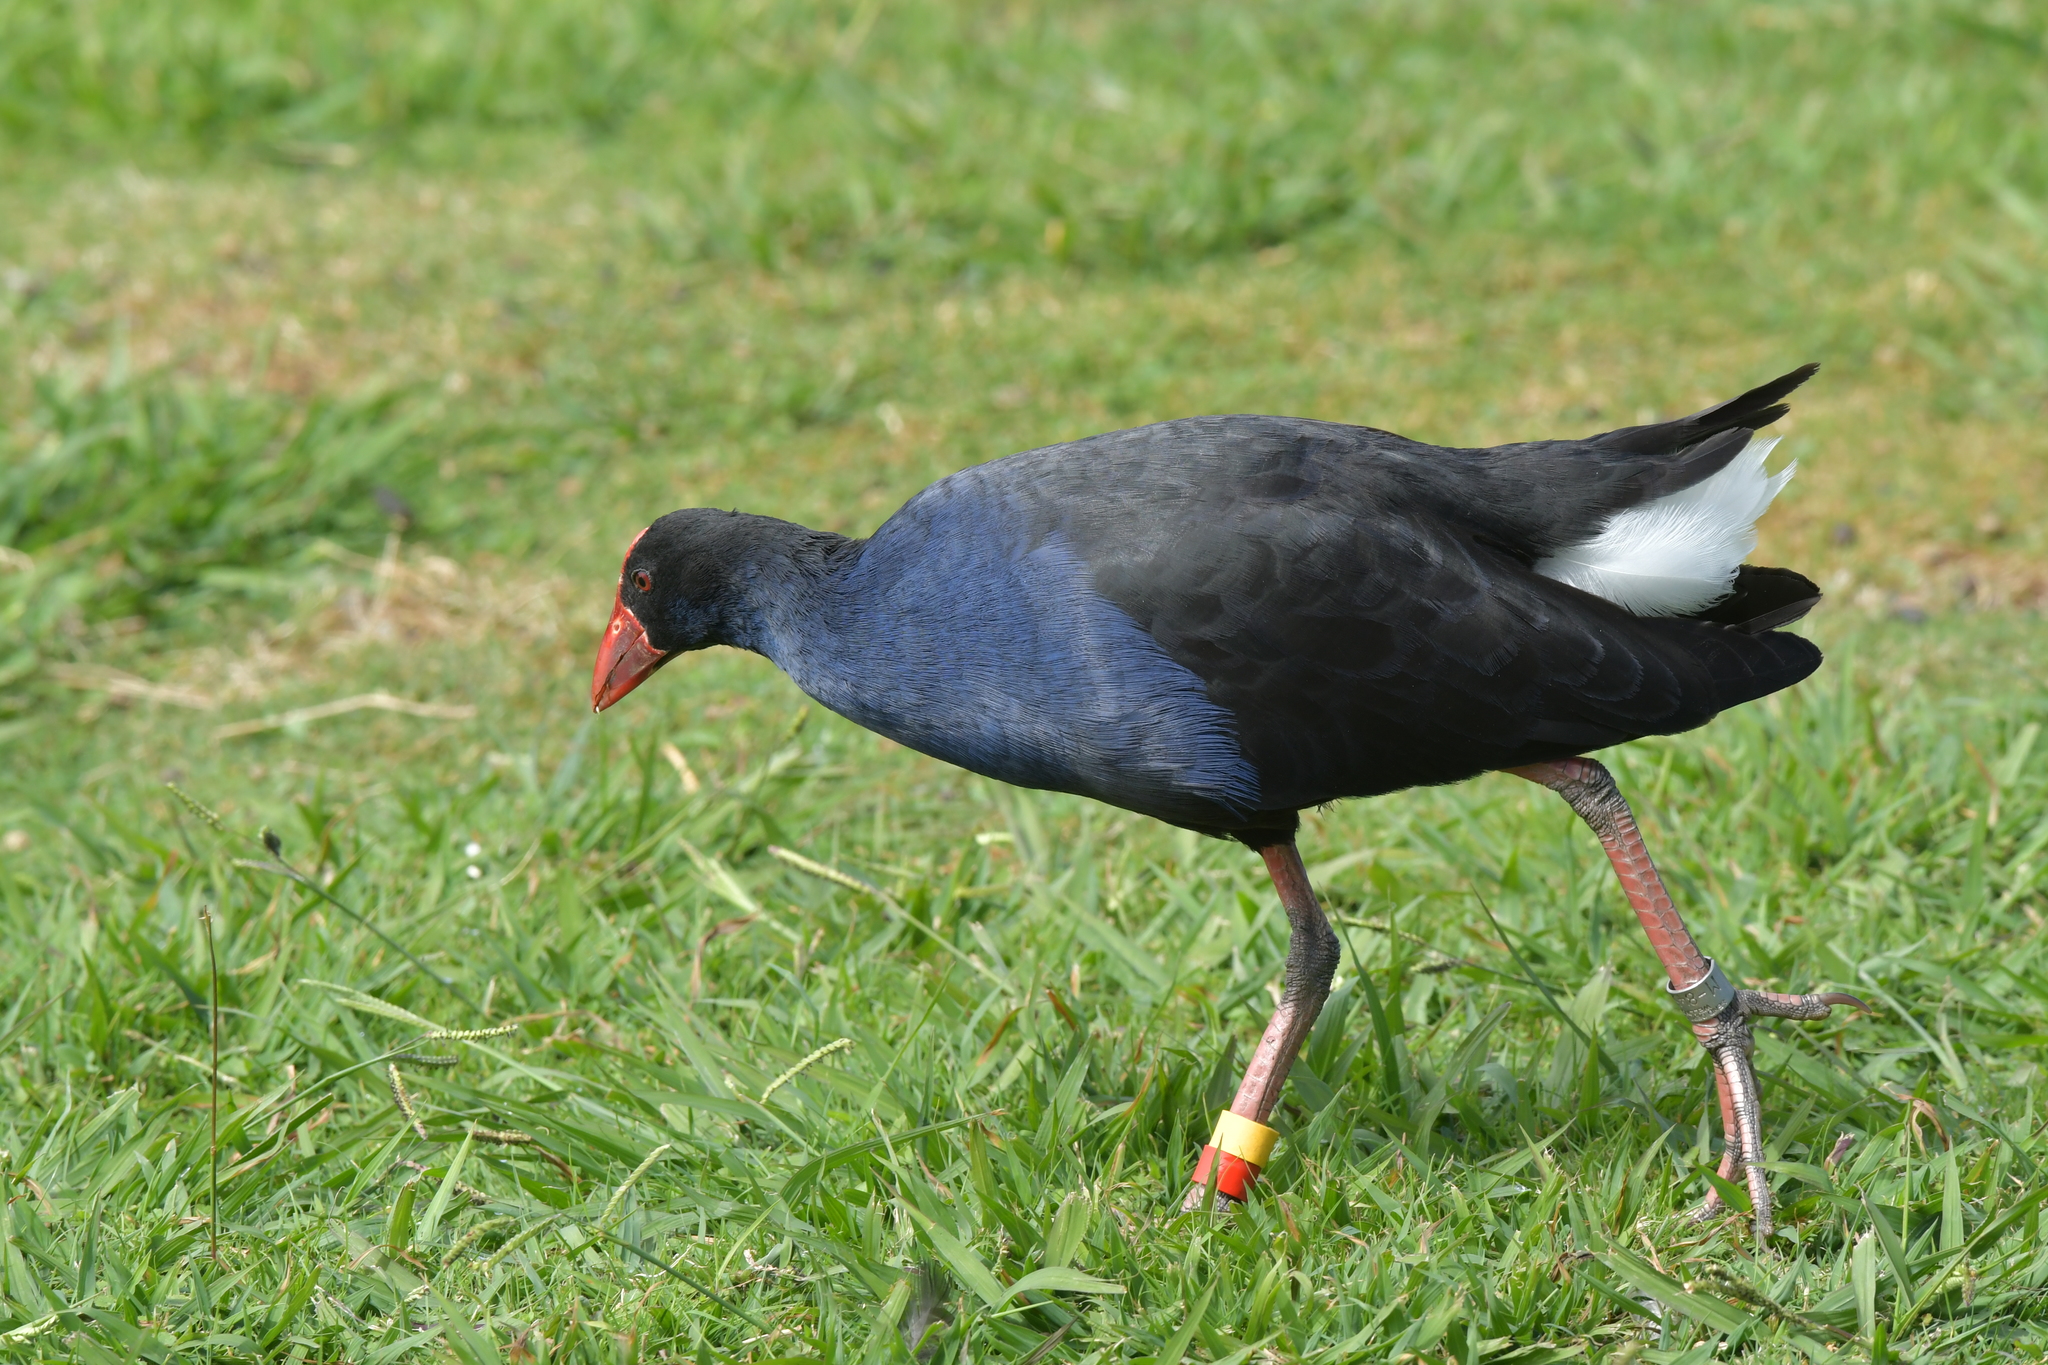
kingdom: Animalia
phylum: Chordata
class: Aves
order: Gruiformes
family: Rallidae
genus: Porphyrio
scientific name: Porphyrio melanotus
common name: Australasian swamphen
